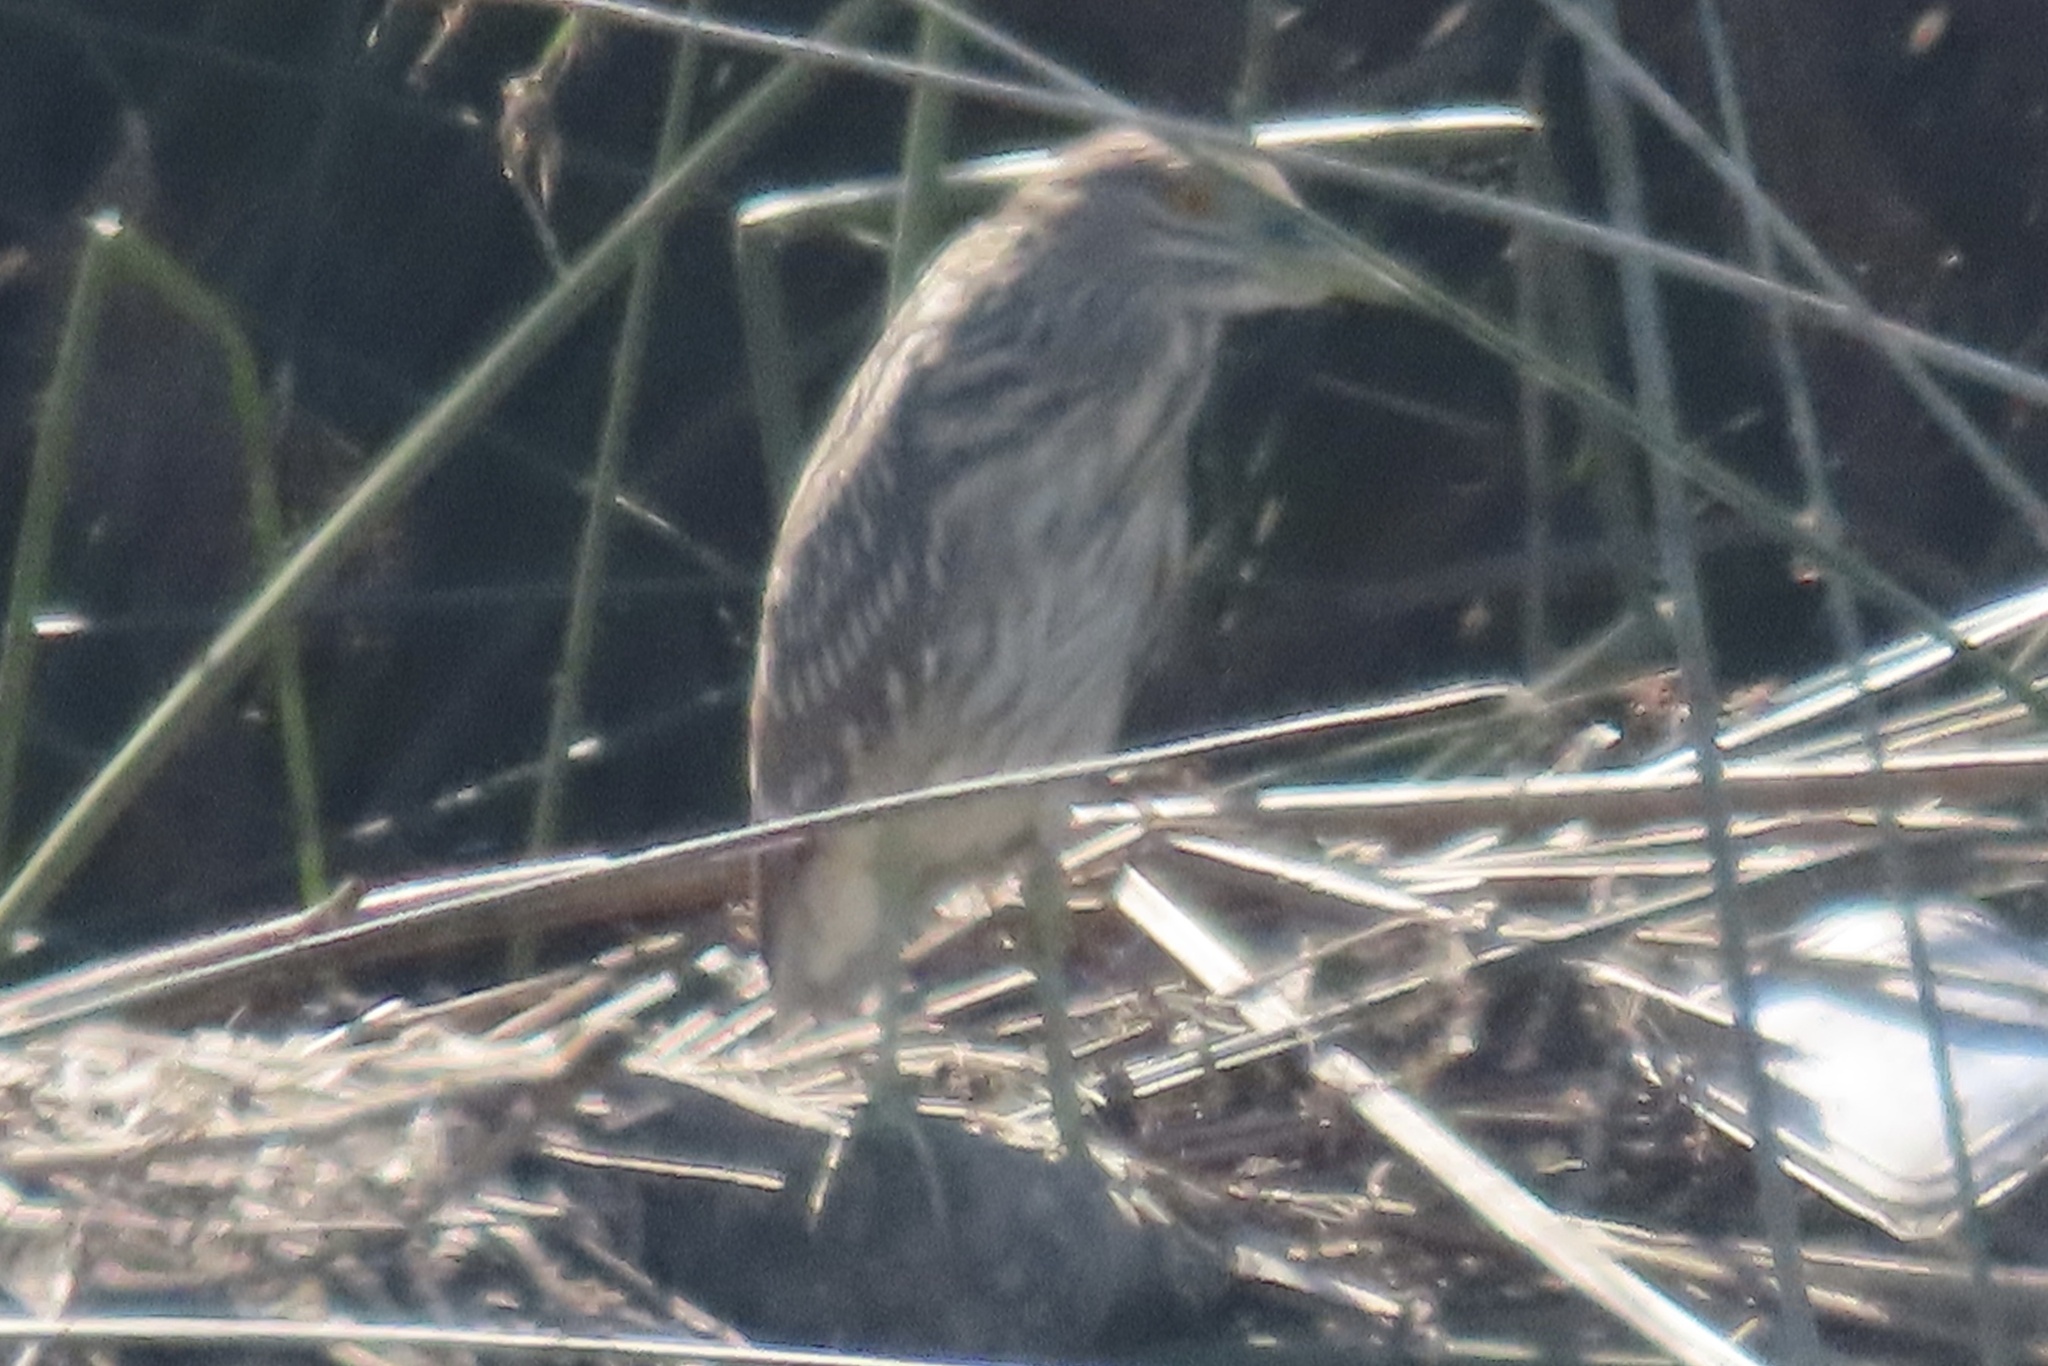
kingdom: Animalia
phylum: Chordata
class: Aves
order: Pelecaniformes
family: Ardeidae
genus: Nycticorax
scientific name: Nycticorax nycticorax
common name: Black-crowned night heron
